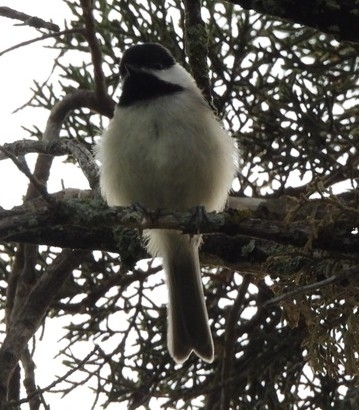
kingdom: Animalia
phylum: Chordata
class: Aves
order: Passeriformes
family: Paridae
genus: Poecile
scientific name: Poecile carolinensis
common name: Carolina chickadee
